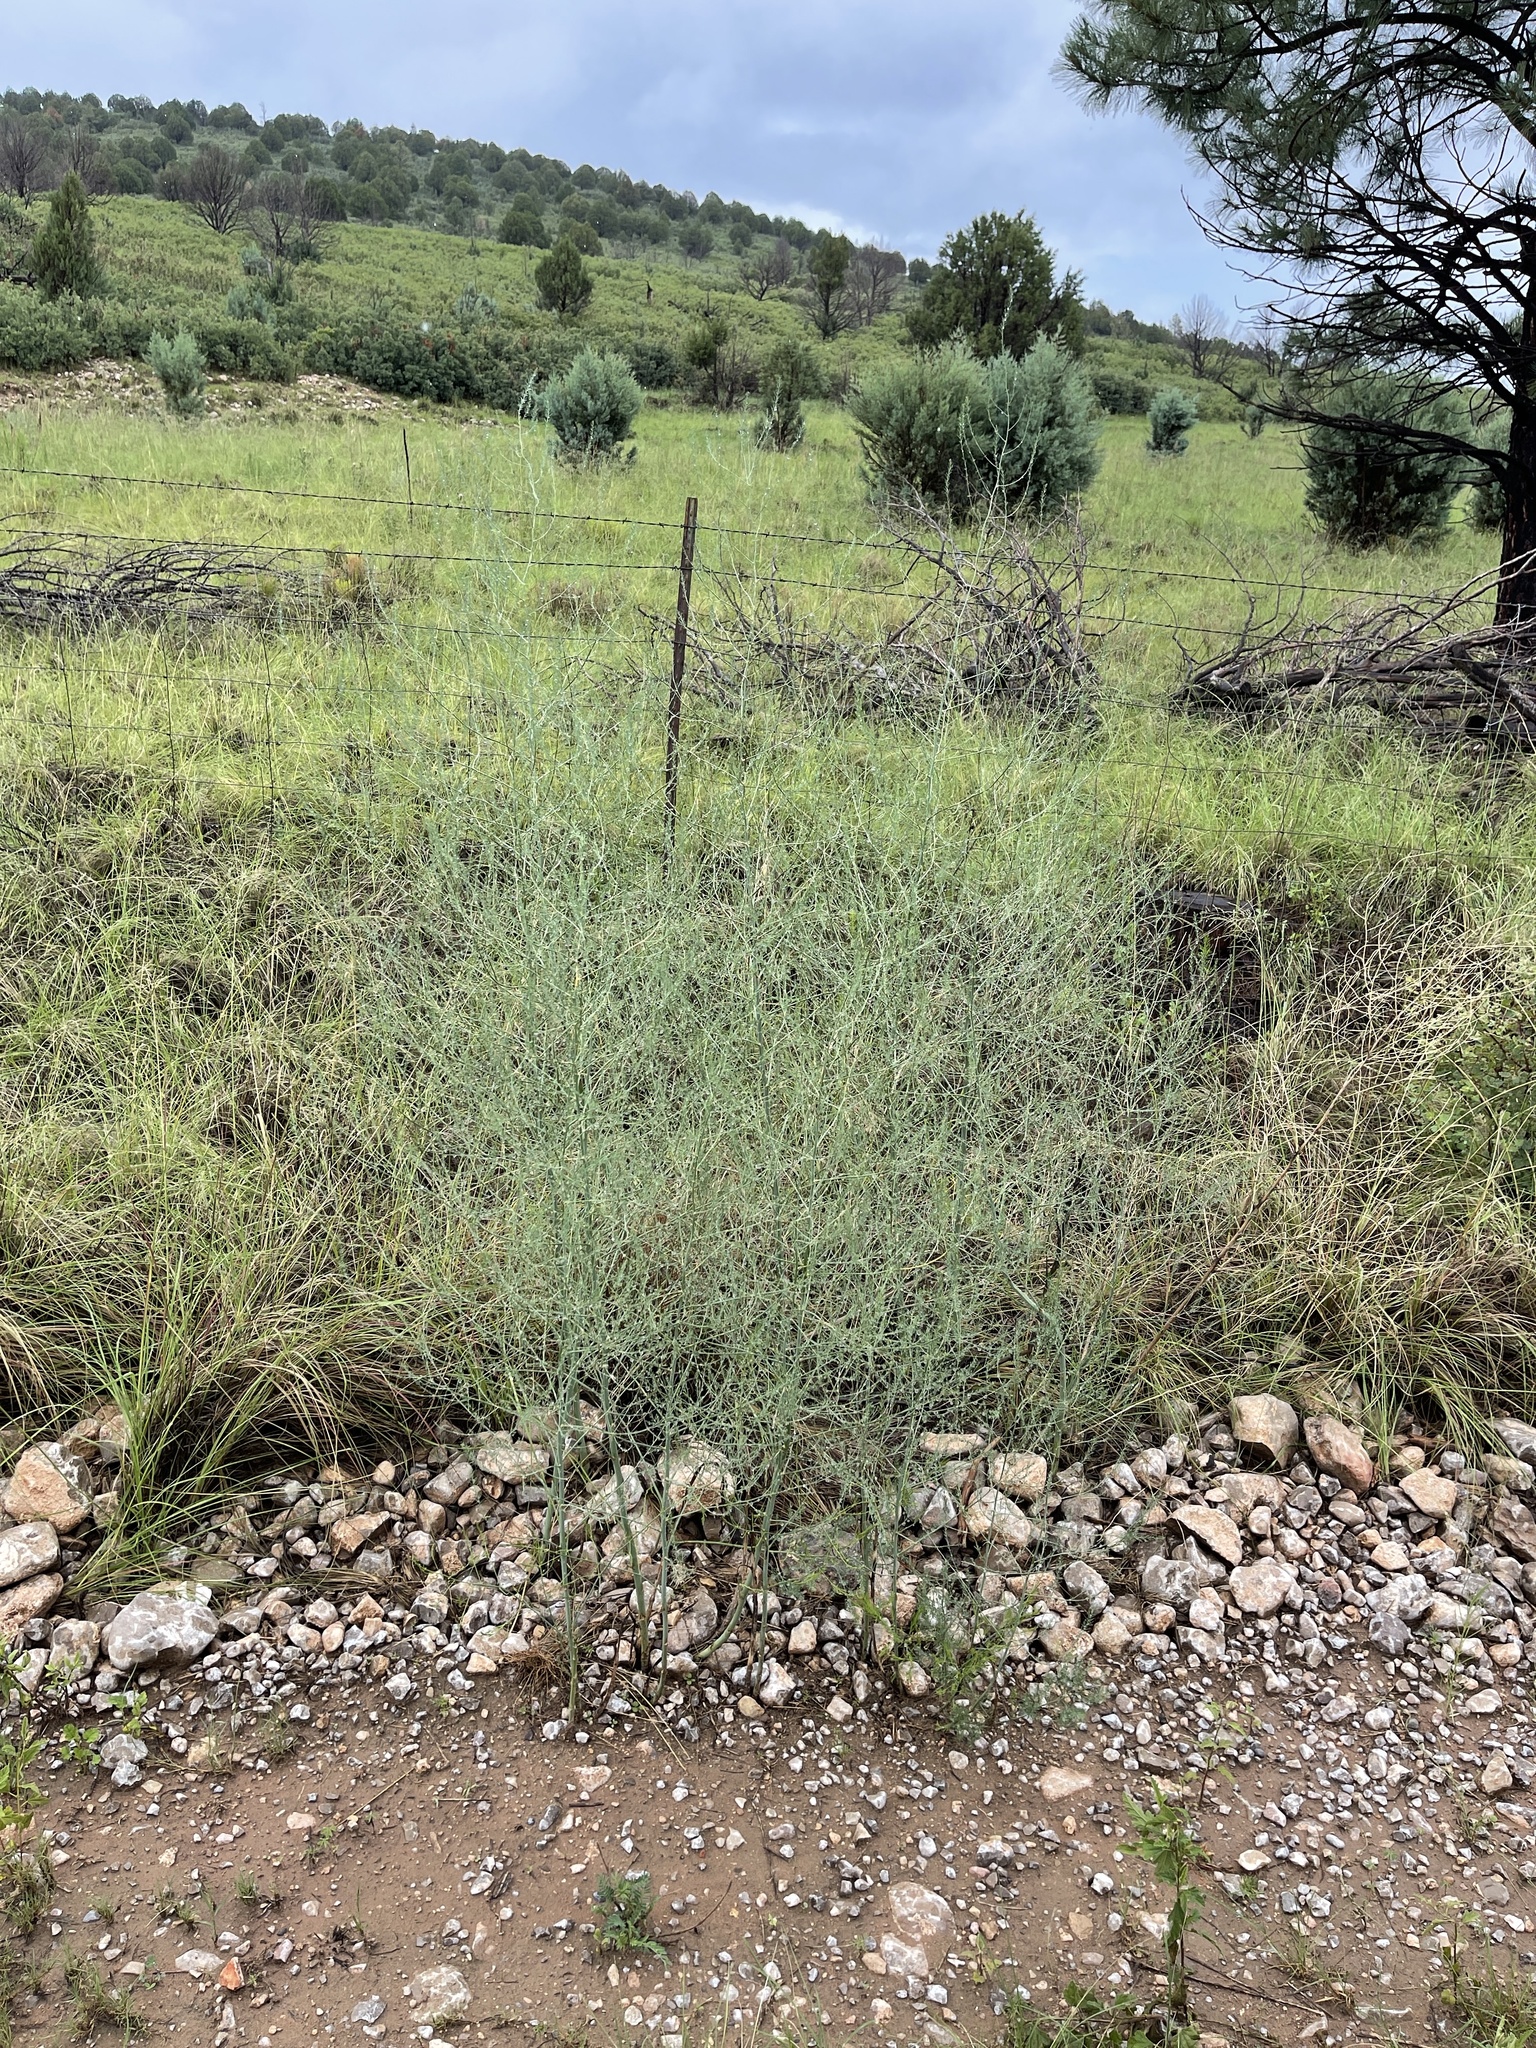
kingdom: Plantae
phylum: Tracheophyta
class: Liliopsida
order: Asparagales
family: Asparagaceae
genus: Asparagus
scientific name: Asparagus officinalis
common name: Garden asparagus
